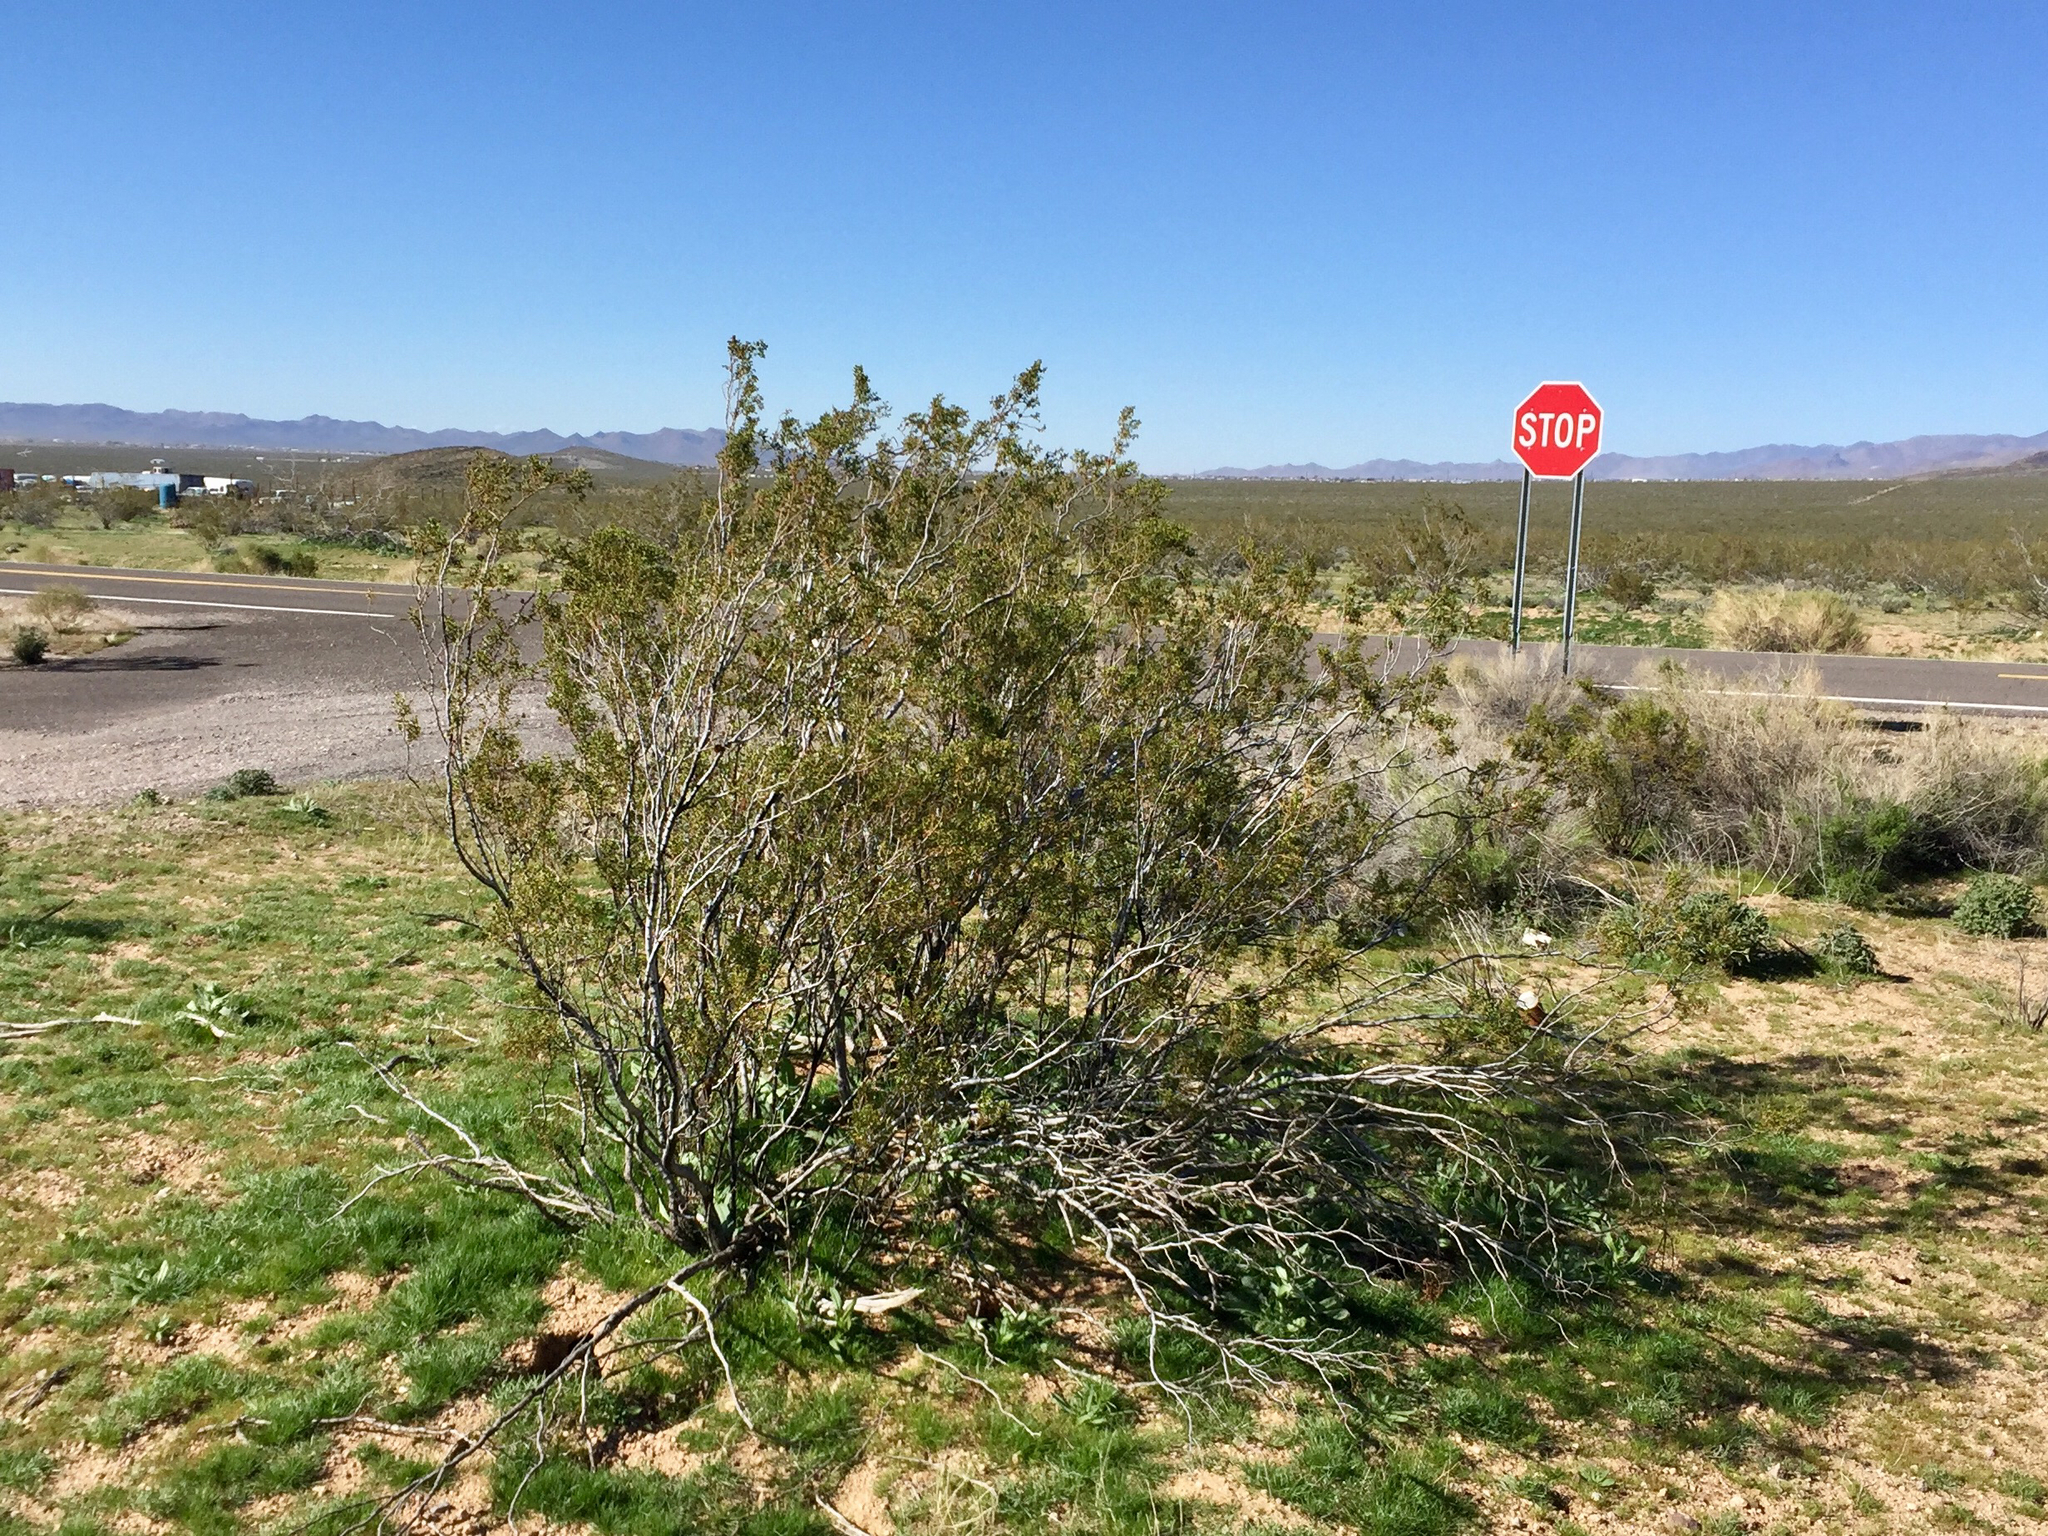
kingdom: Plantae
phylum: Tracheophyta
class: Magnoliopsida
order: Zygophyllales
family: Zygophyllaceae
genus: Larrea
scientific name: Larrea tridentata
